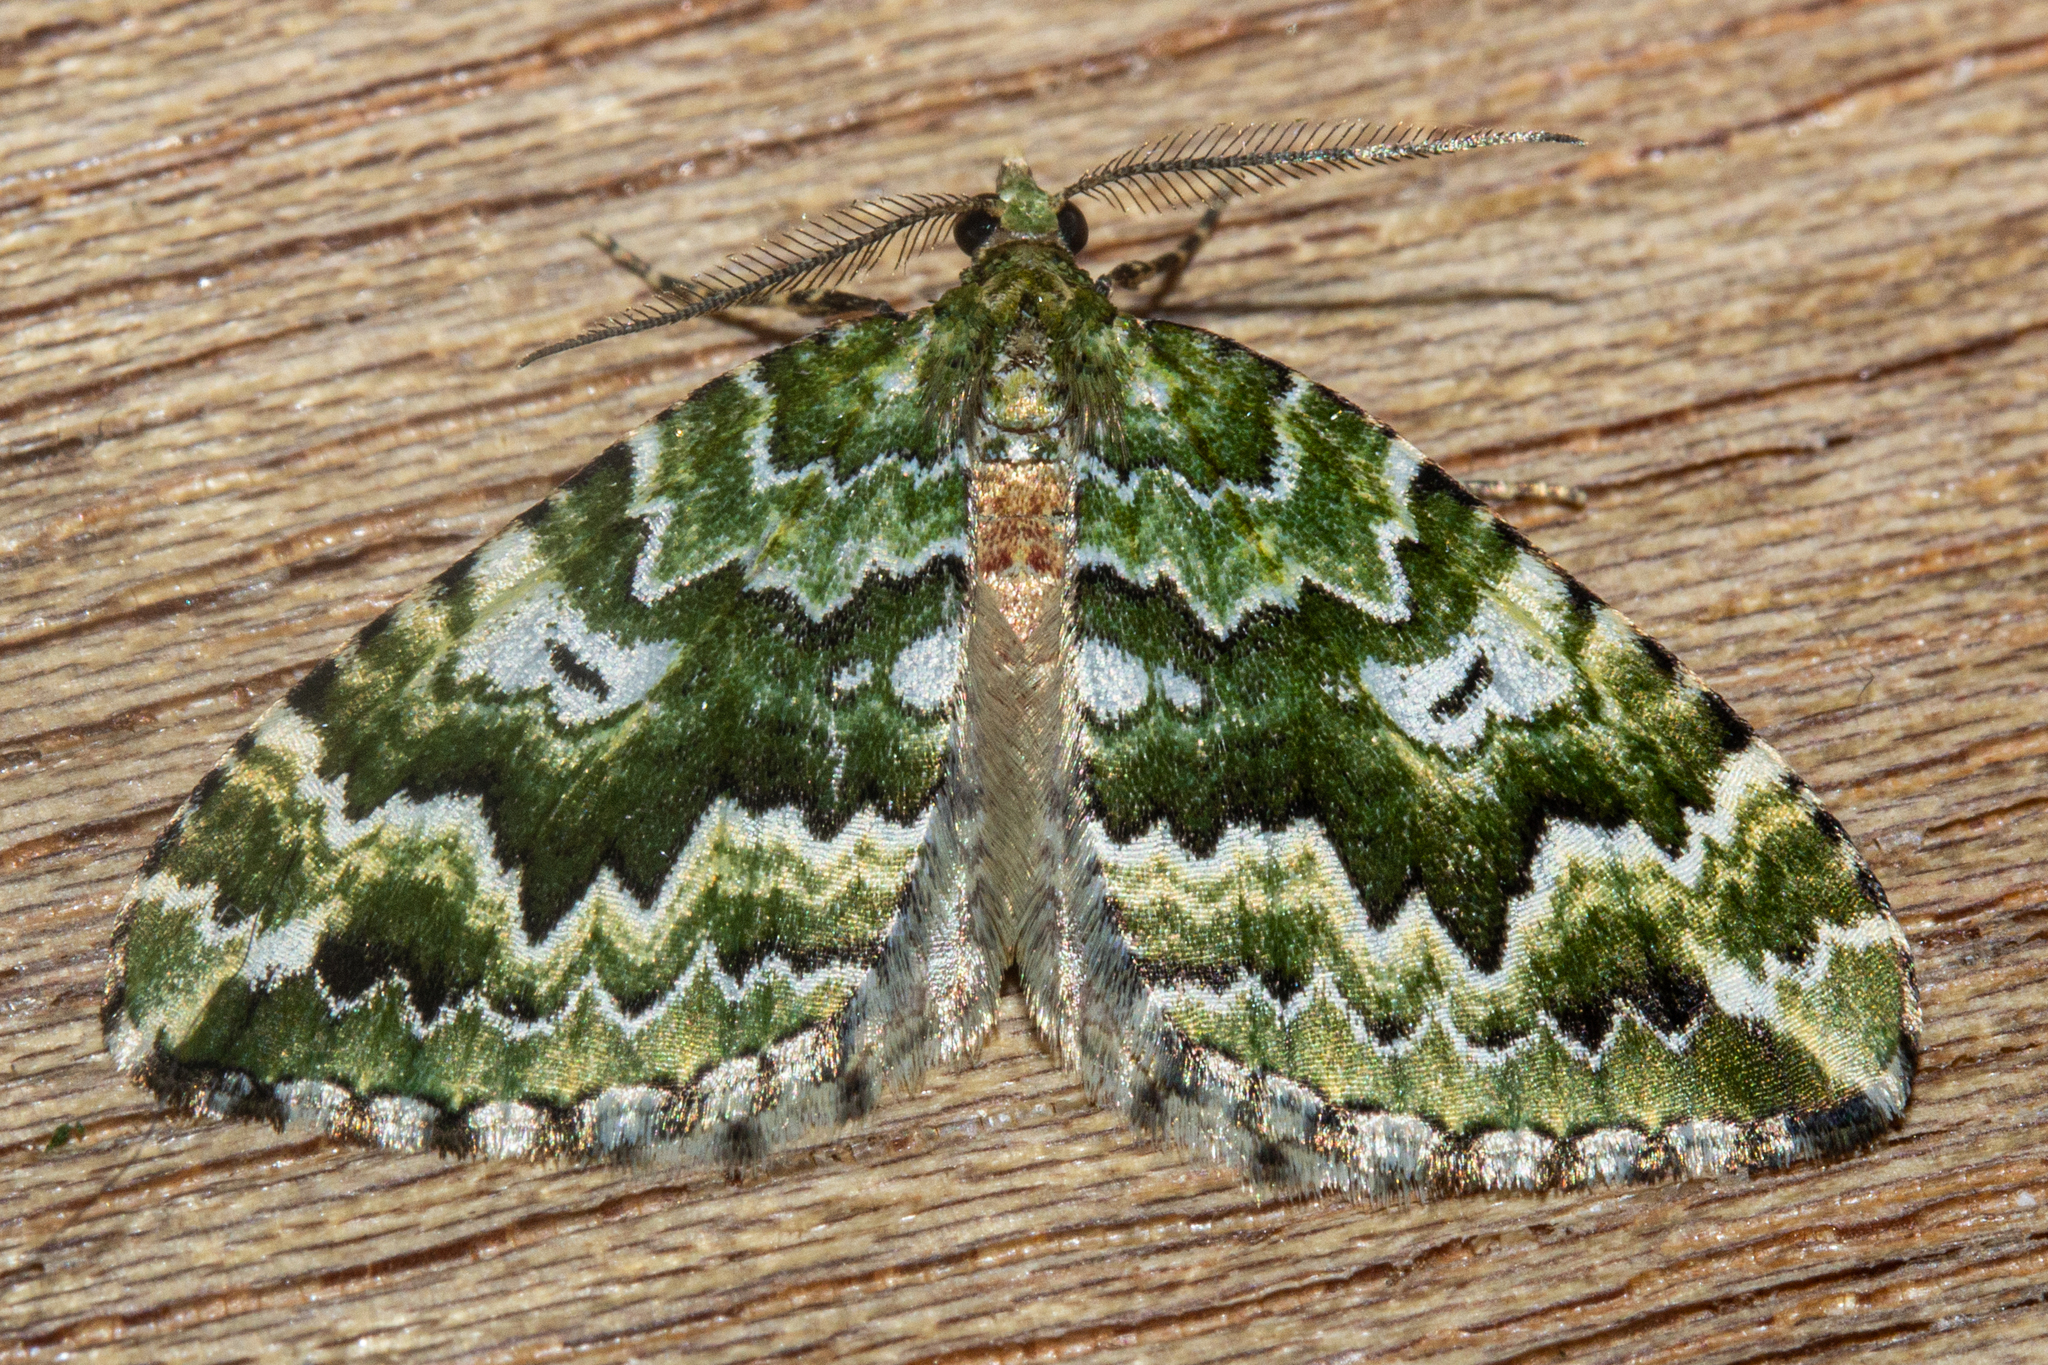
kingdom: Animalia
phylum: Arthropoda
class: Insecta
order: Lepidoptera
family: Geometridae
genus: Asaphodes
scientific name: Asaphodes beata
